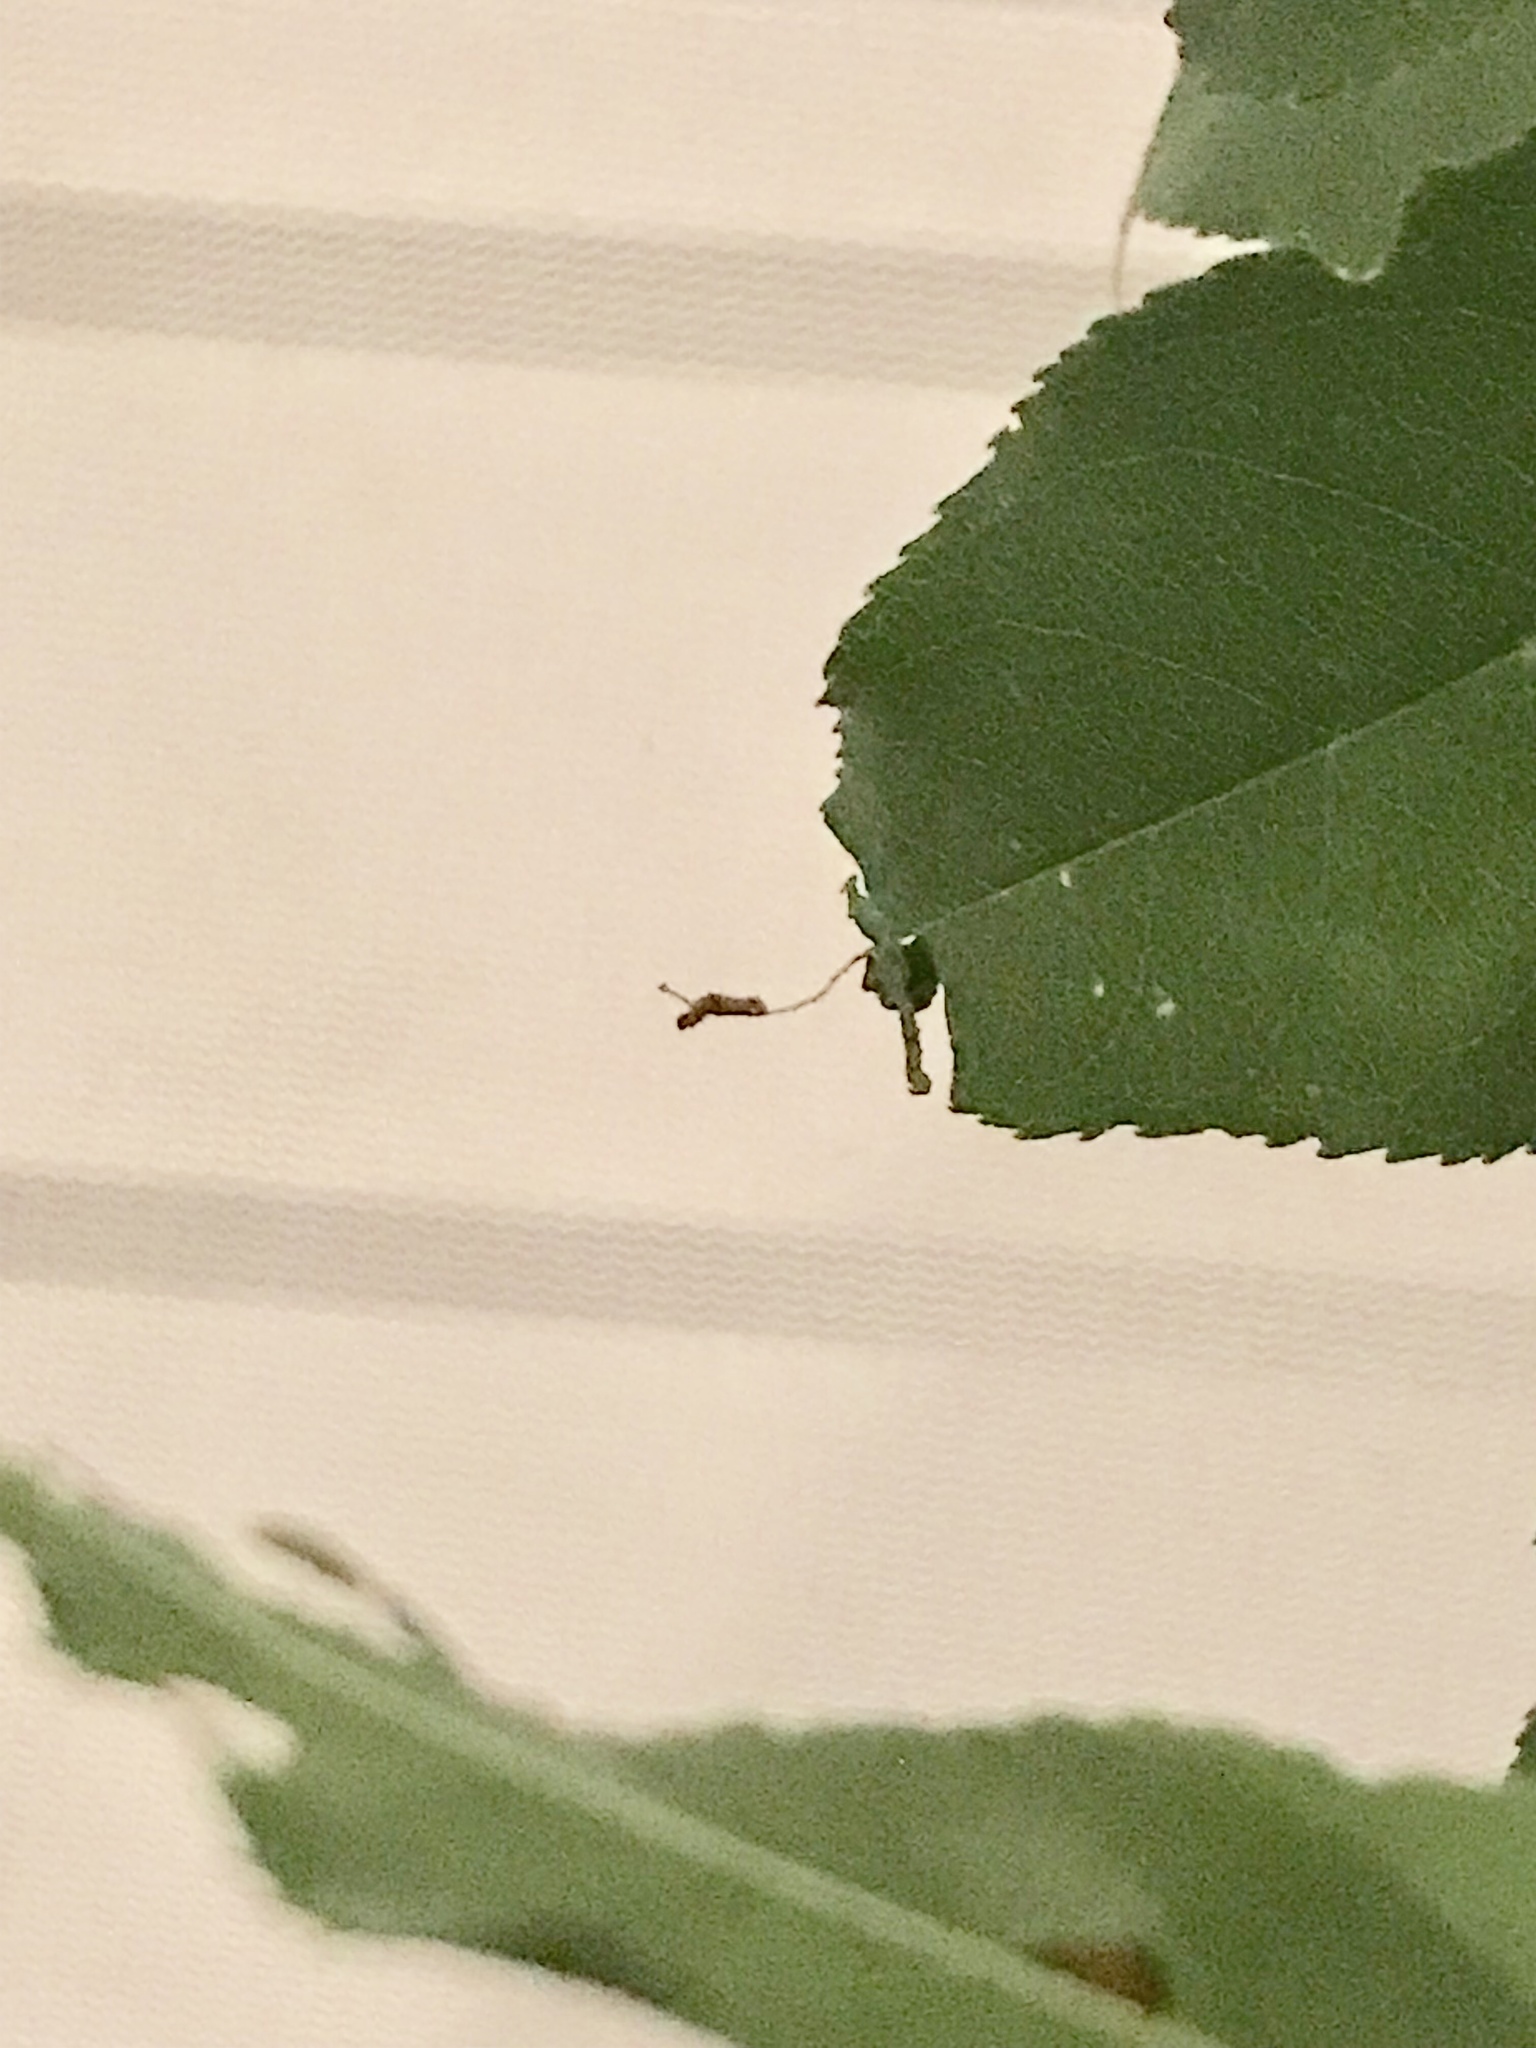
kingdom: Animalia
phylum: Arthropoda
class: Insecta
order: Lepidoptera
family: Nymphalidae
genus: Limenitis
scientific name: Limenitis astyanax
